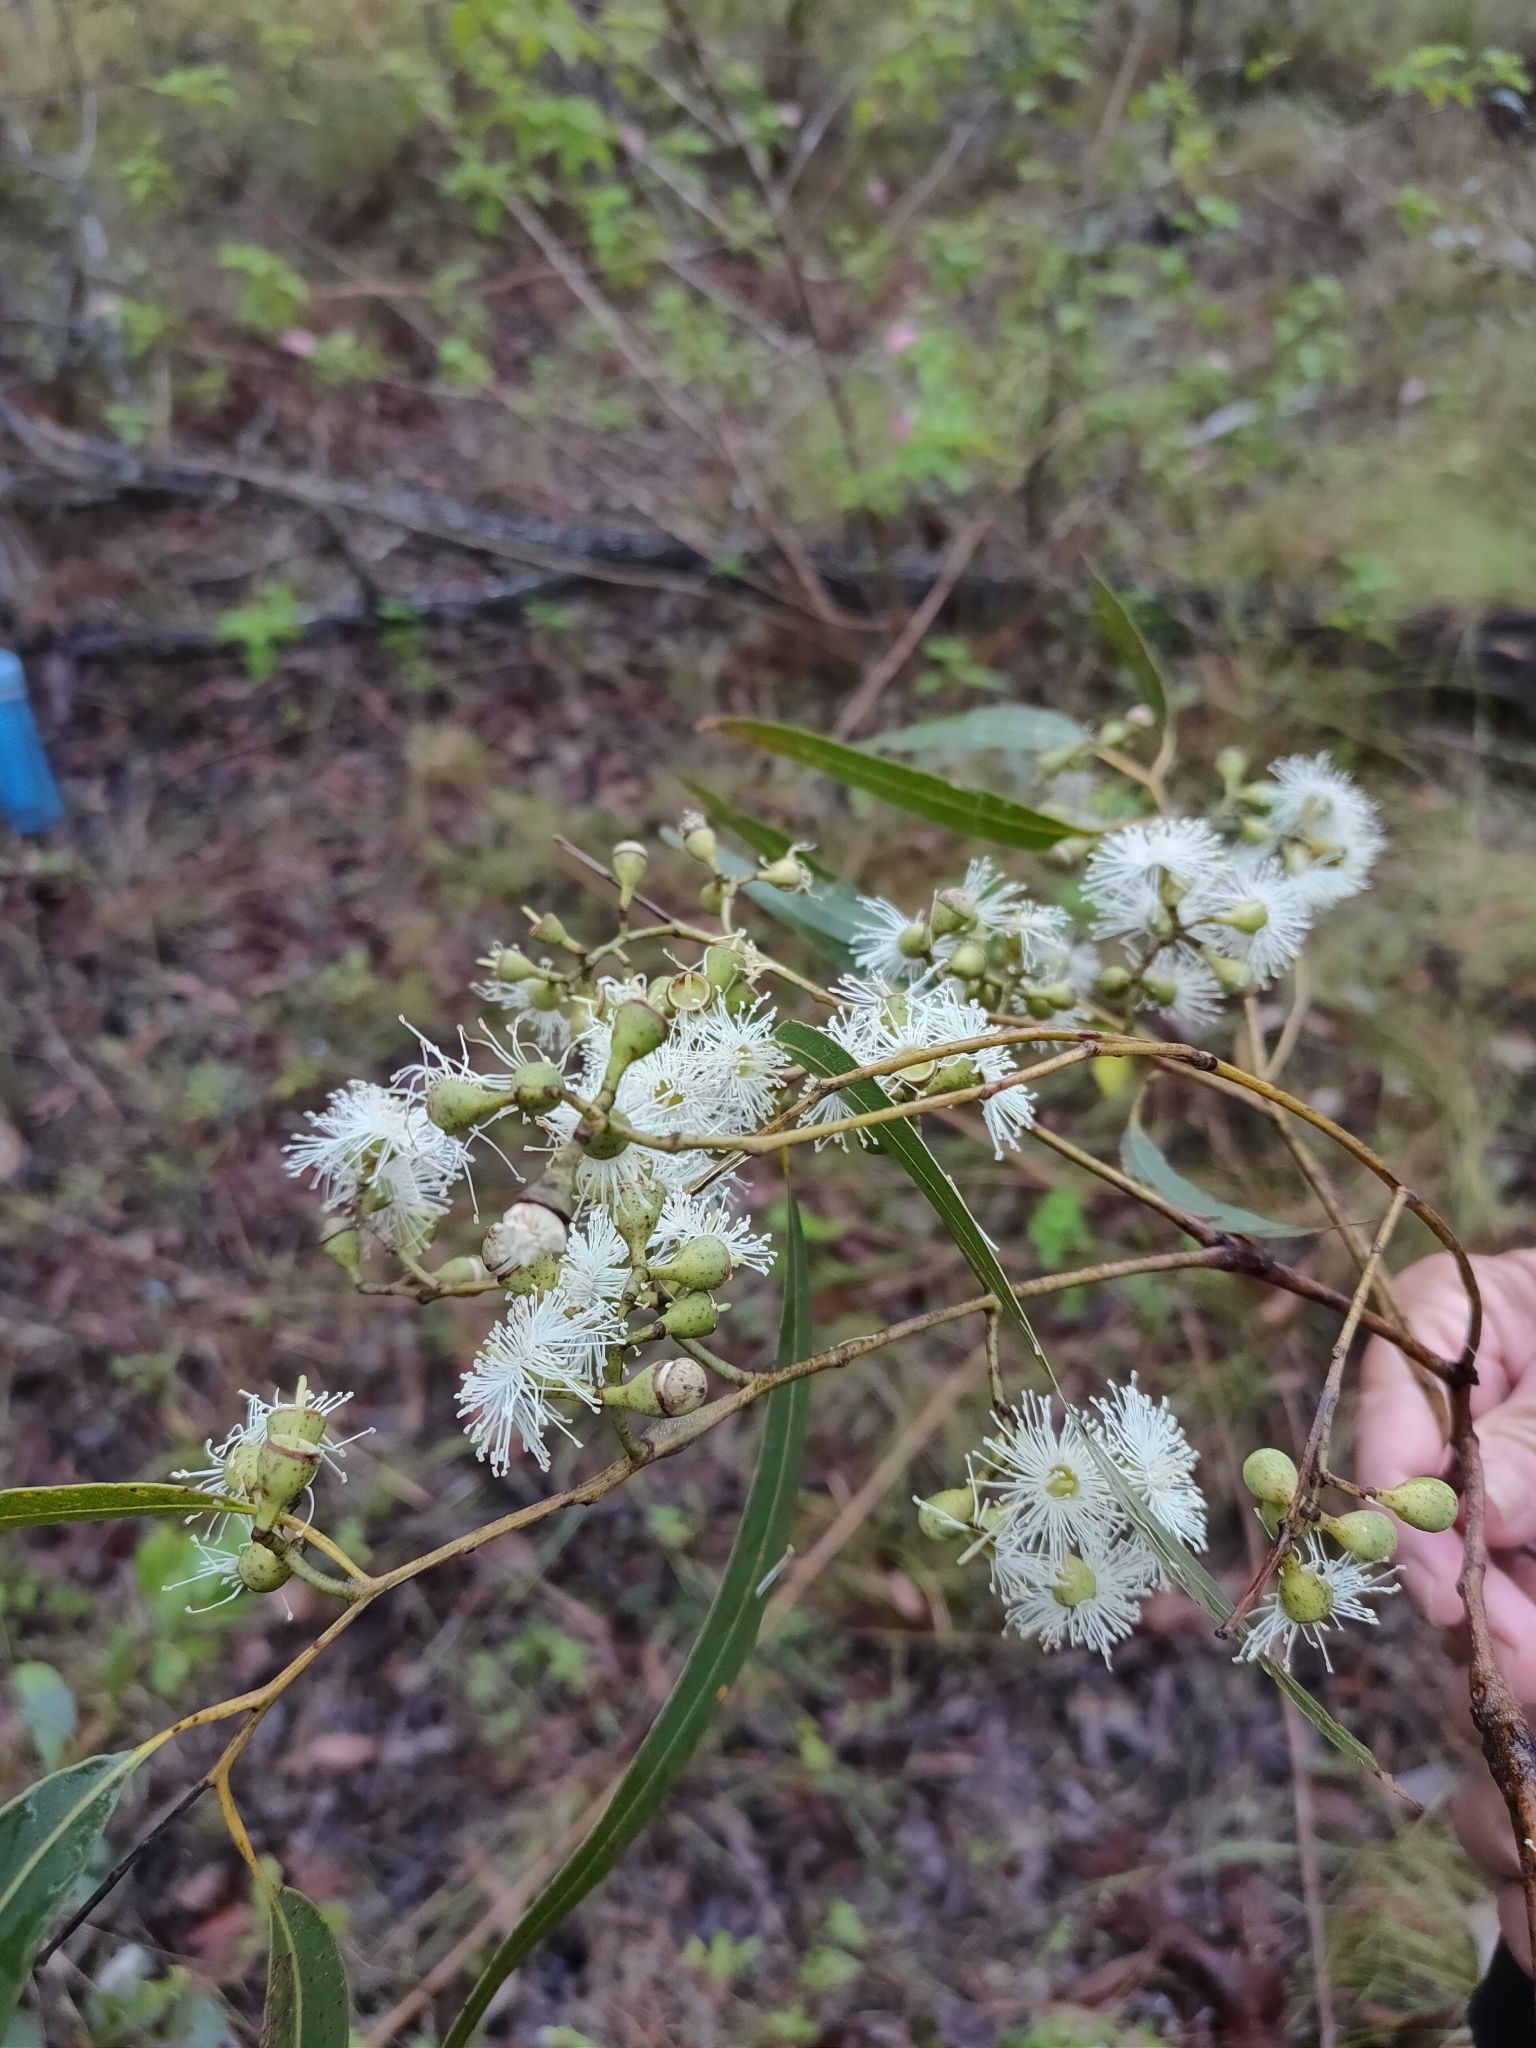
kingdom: Plantae
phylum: Tracheophyta
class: Magnoliopsida
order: Myrtales
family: Myrtaceae
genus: Corymbia
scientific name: Corymbia citriodora
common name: Lemonscented gum
